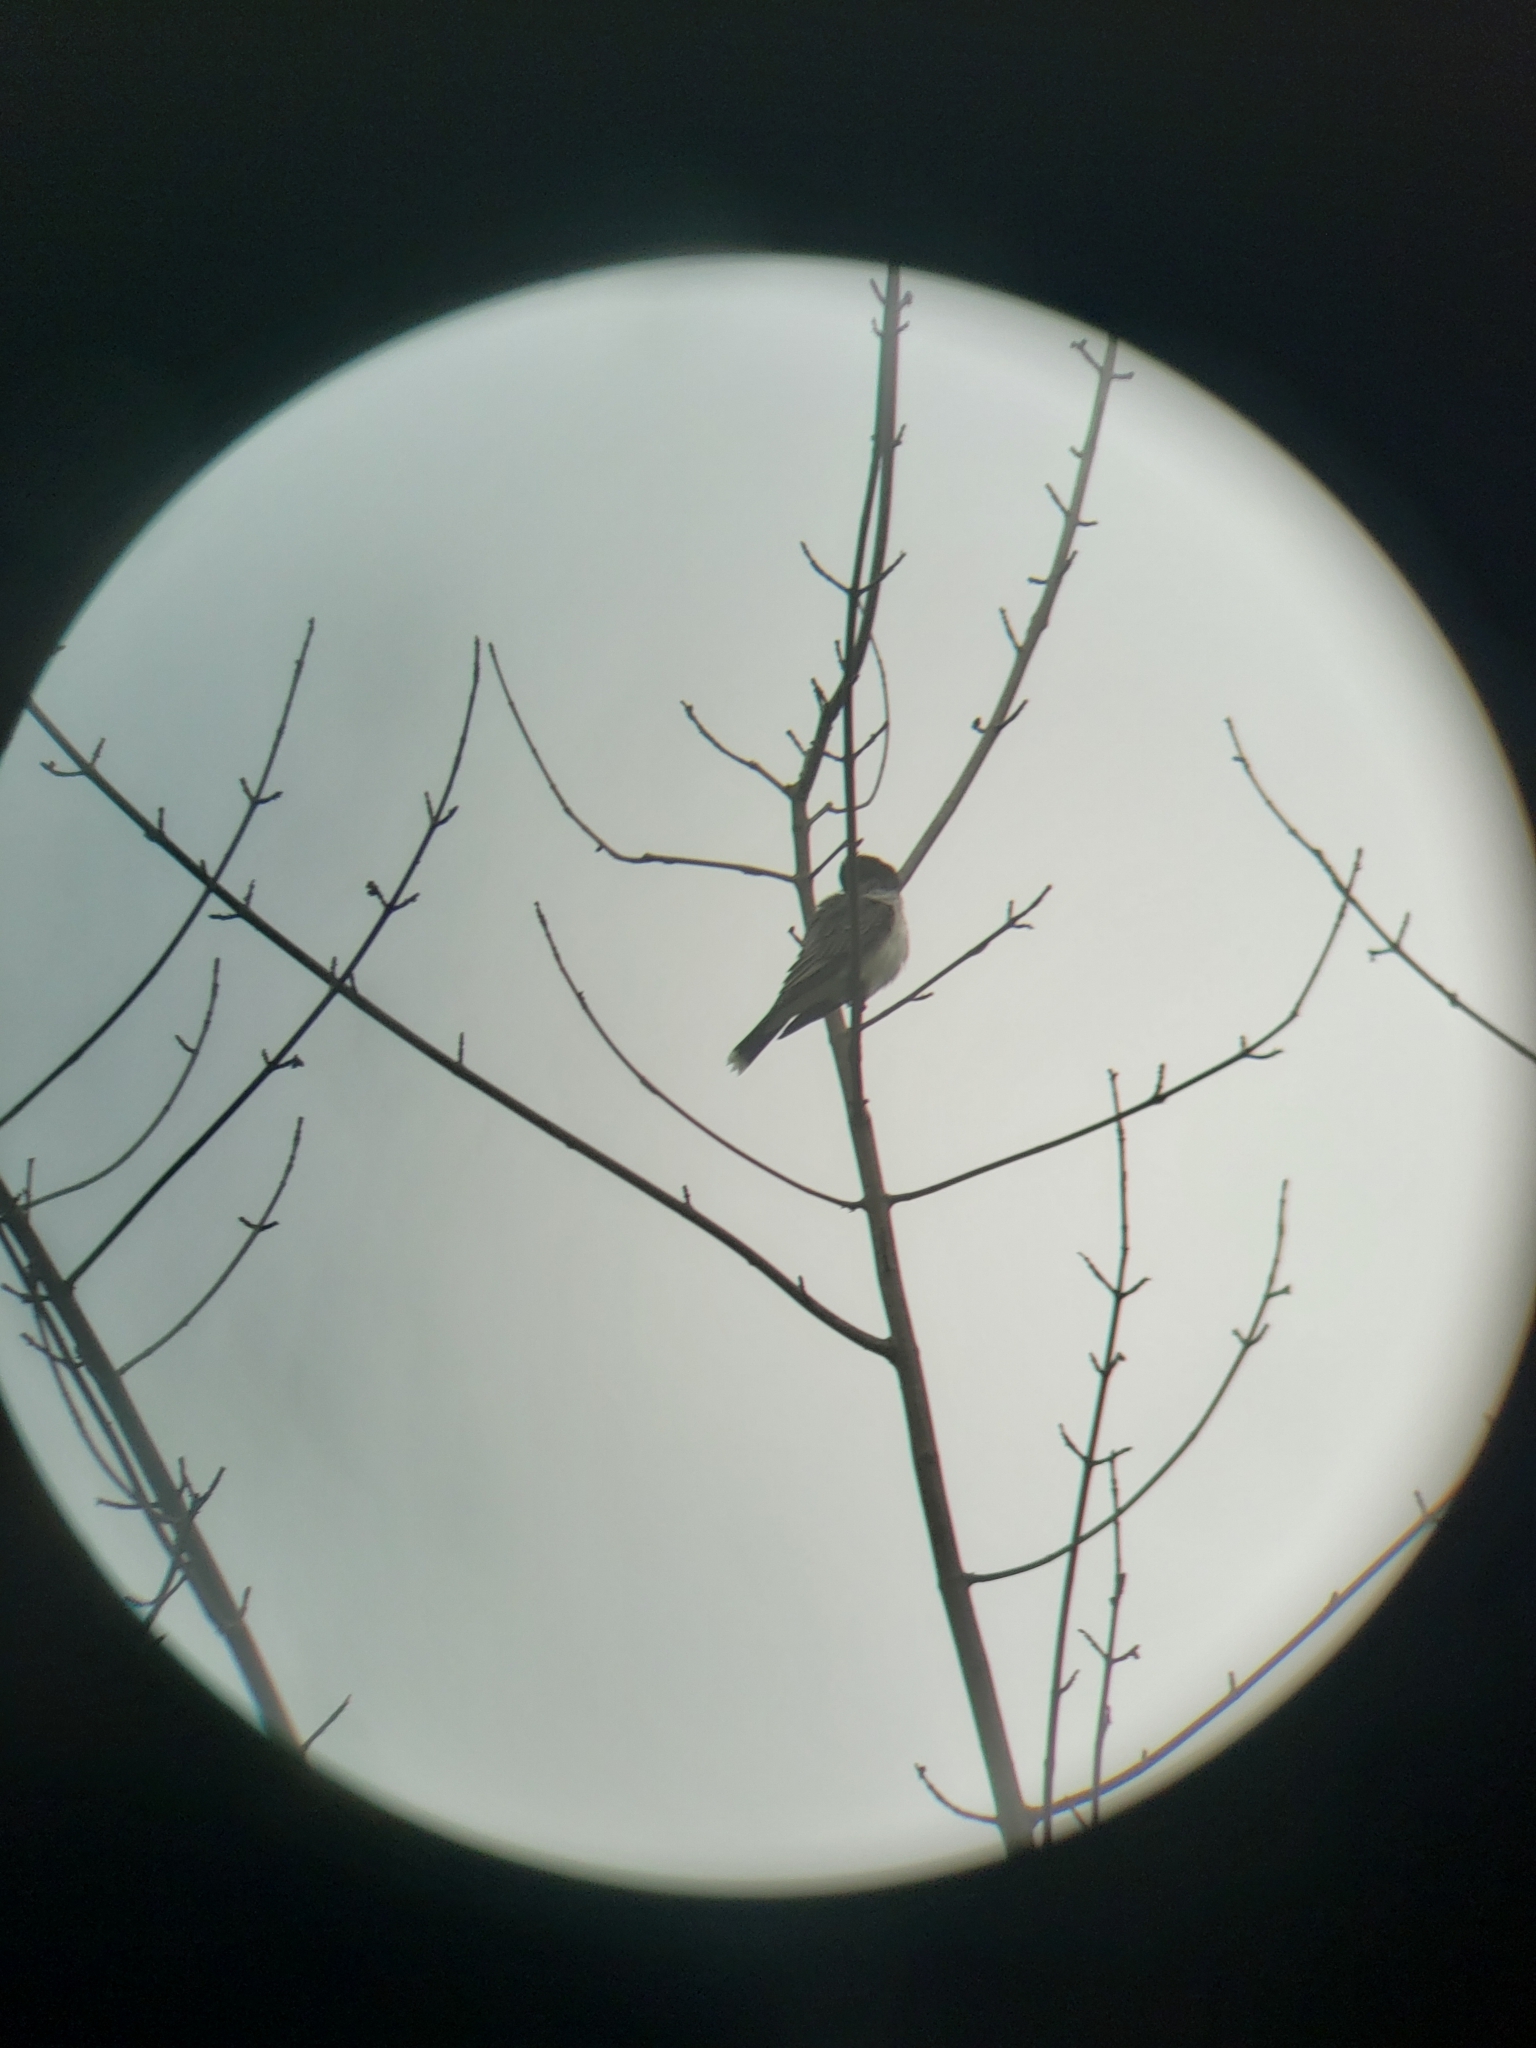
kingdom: Animalia
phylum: Chordata
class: Aves
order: Passeriformes
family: Tyrannidae
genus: Tyrannus
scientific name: Tyrannus tyrannus
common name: Eastern kingbird
